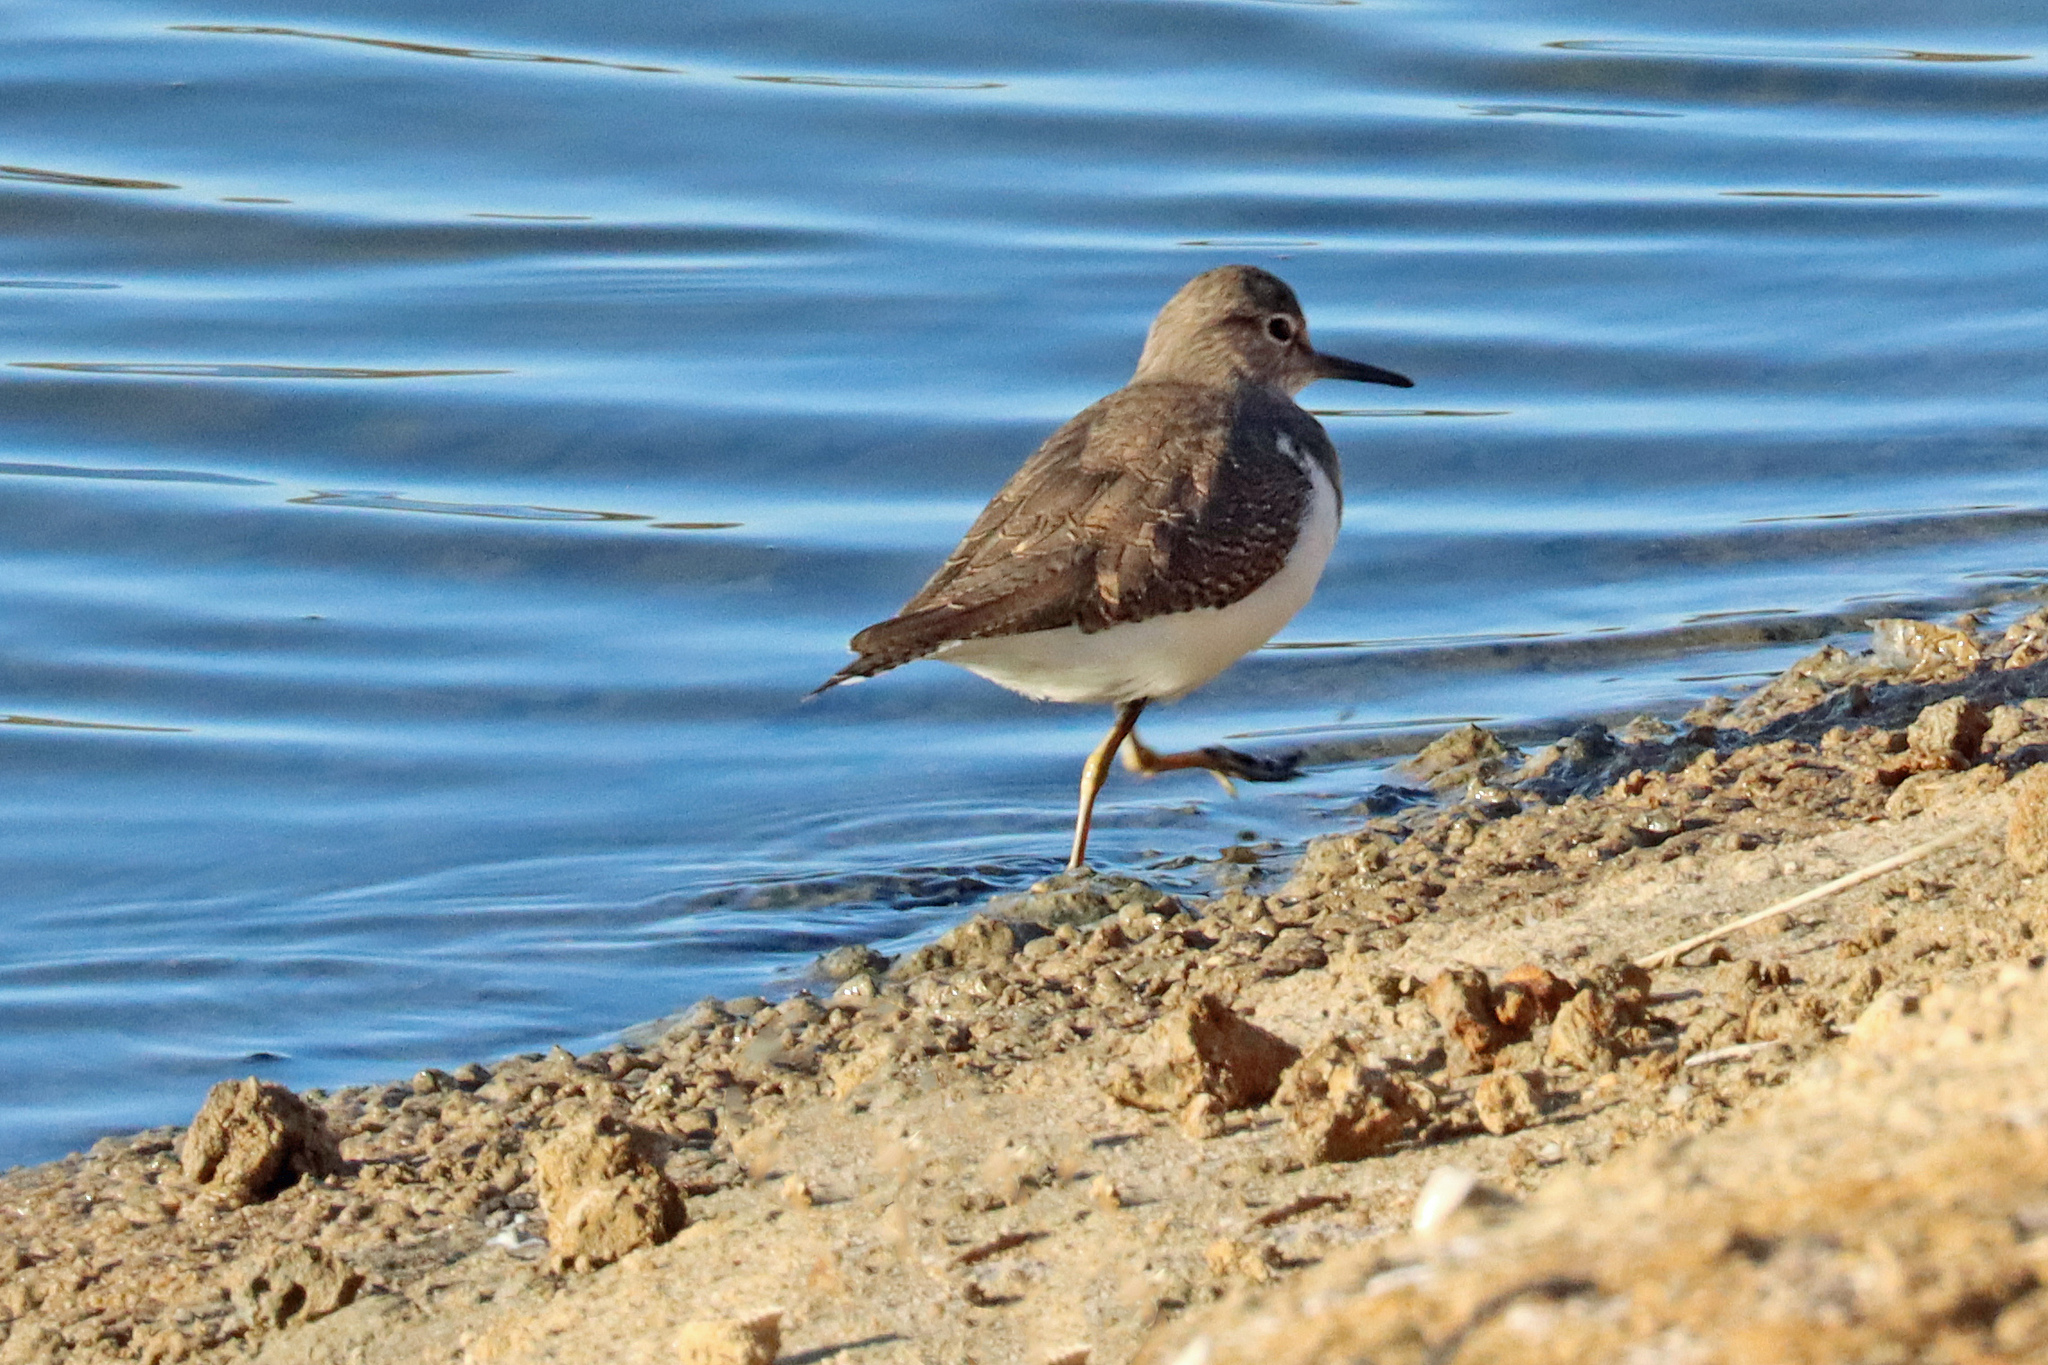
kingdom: Animalia
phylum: Chordata
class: Aves
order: Charadriiformes
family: Scolopacidae
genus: Actitis
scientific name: Actitis hypoleucos
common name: Common sandpiper
